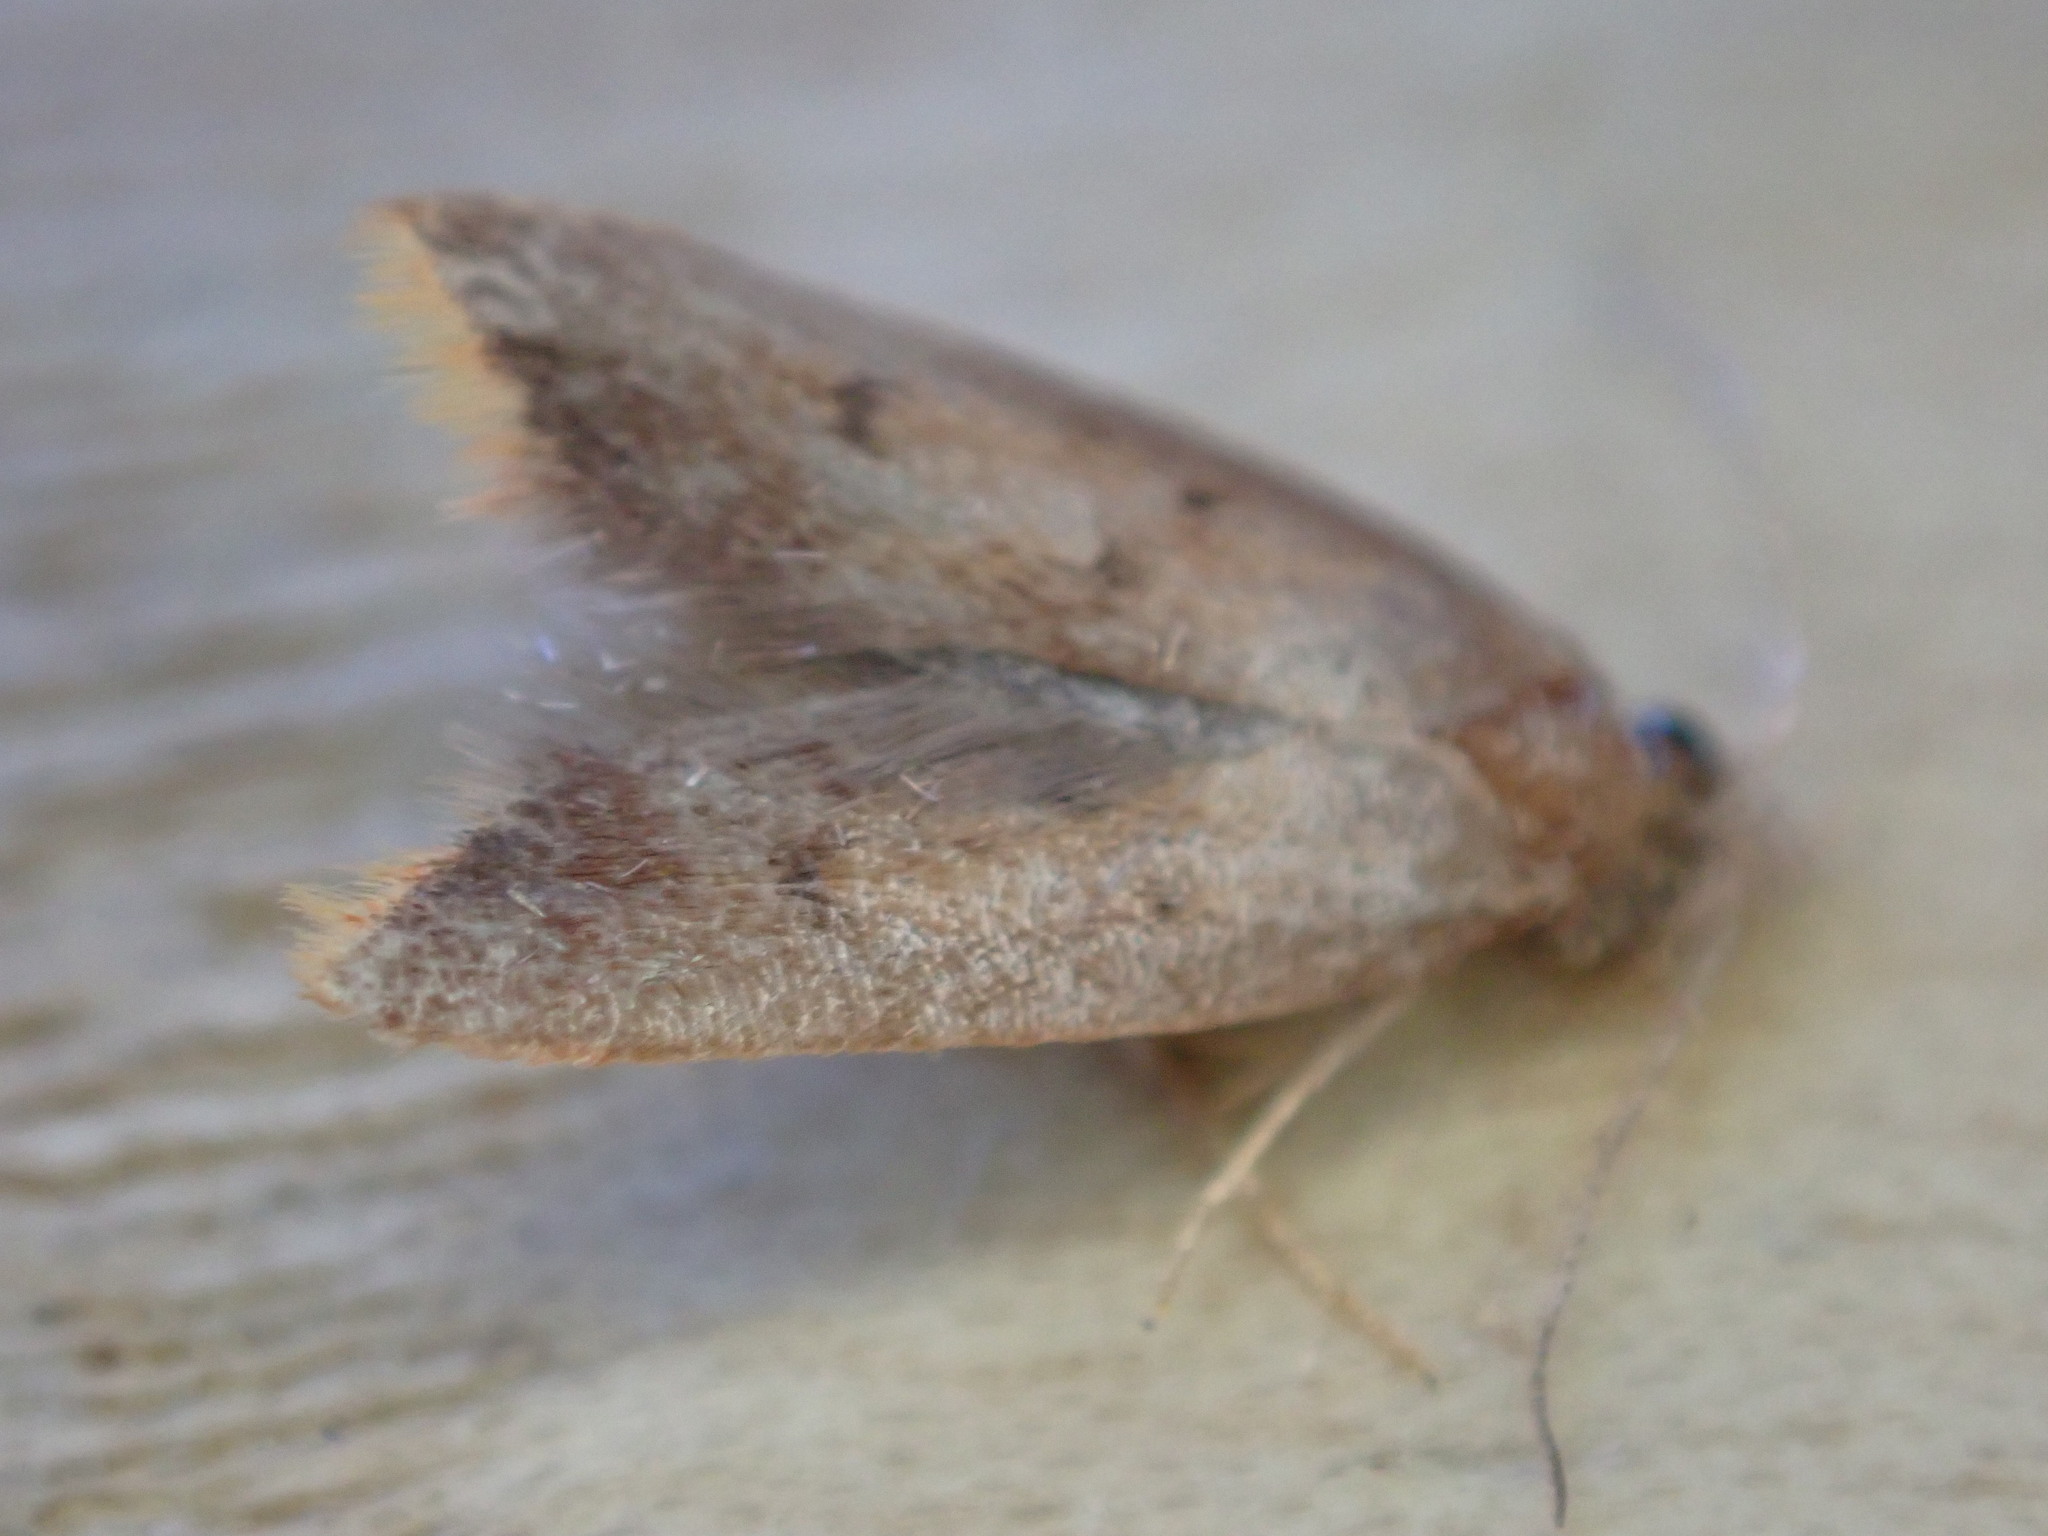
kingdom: Animalia
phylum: Arthropoda
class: Insecta
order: Lepidoptera
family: Oecophoridae
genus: Tachystola
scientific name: Tachystola acroxantha
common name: Ruddy streak
